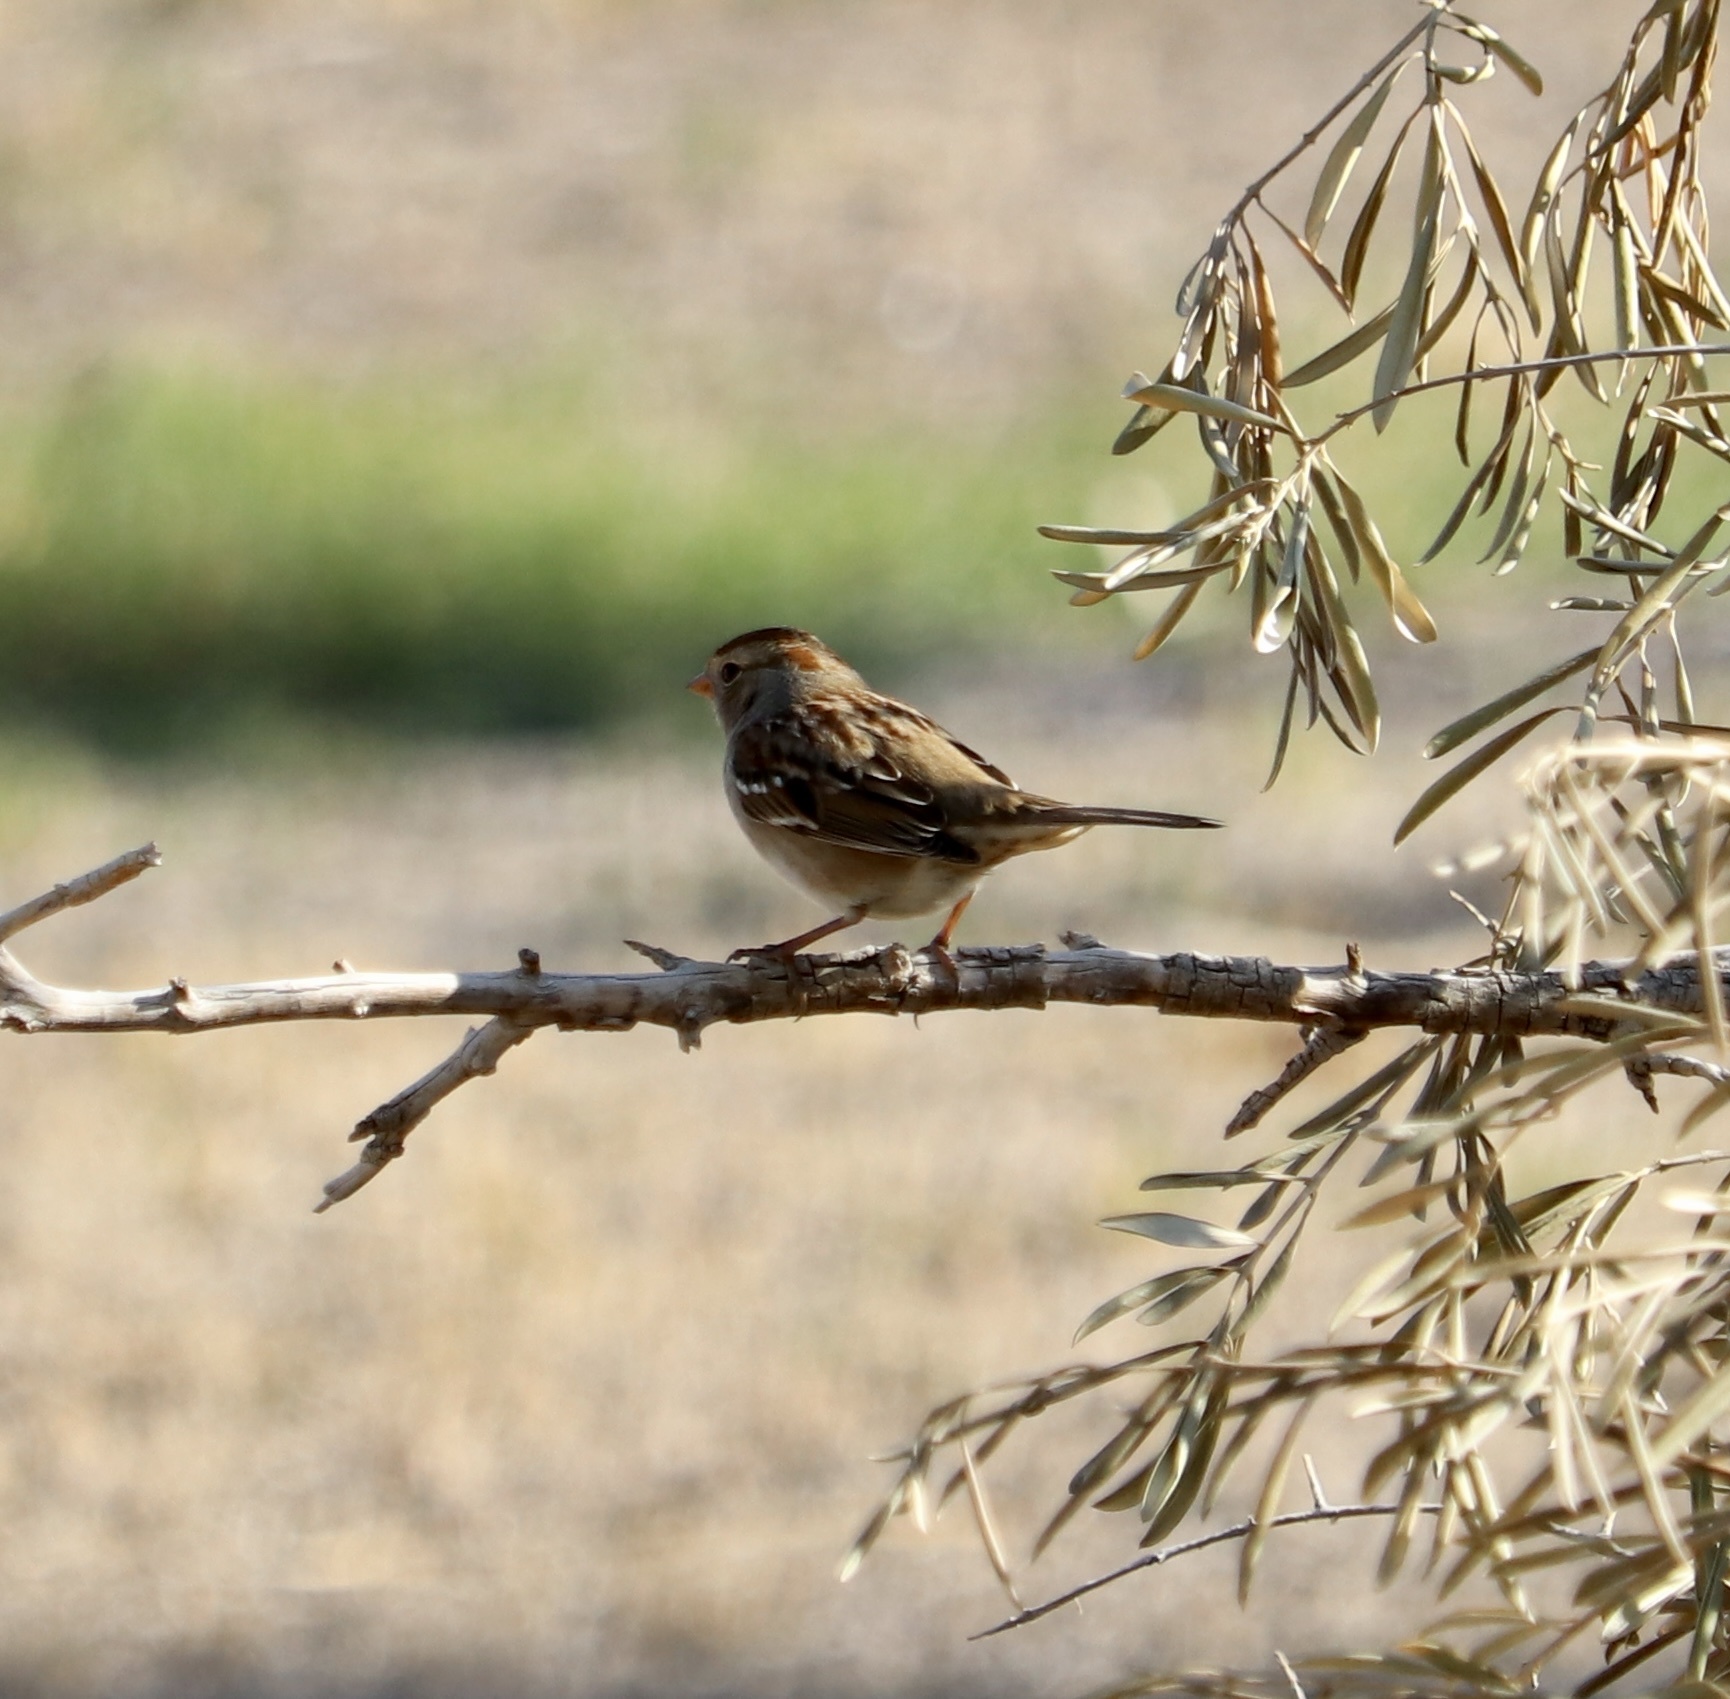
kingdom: Animalia
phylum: Chordata
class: Aves
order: Passeriformes
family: Passerellidae
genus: Zonotrichia
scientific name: Zonotrichia leucophrys
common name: White-crowned sparrow
